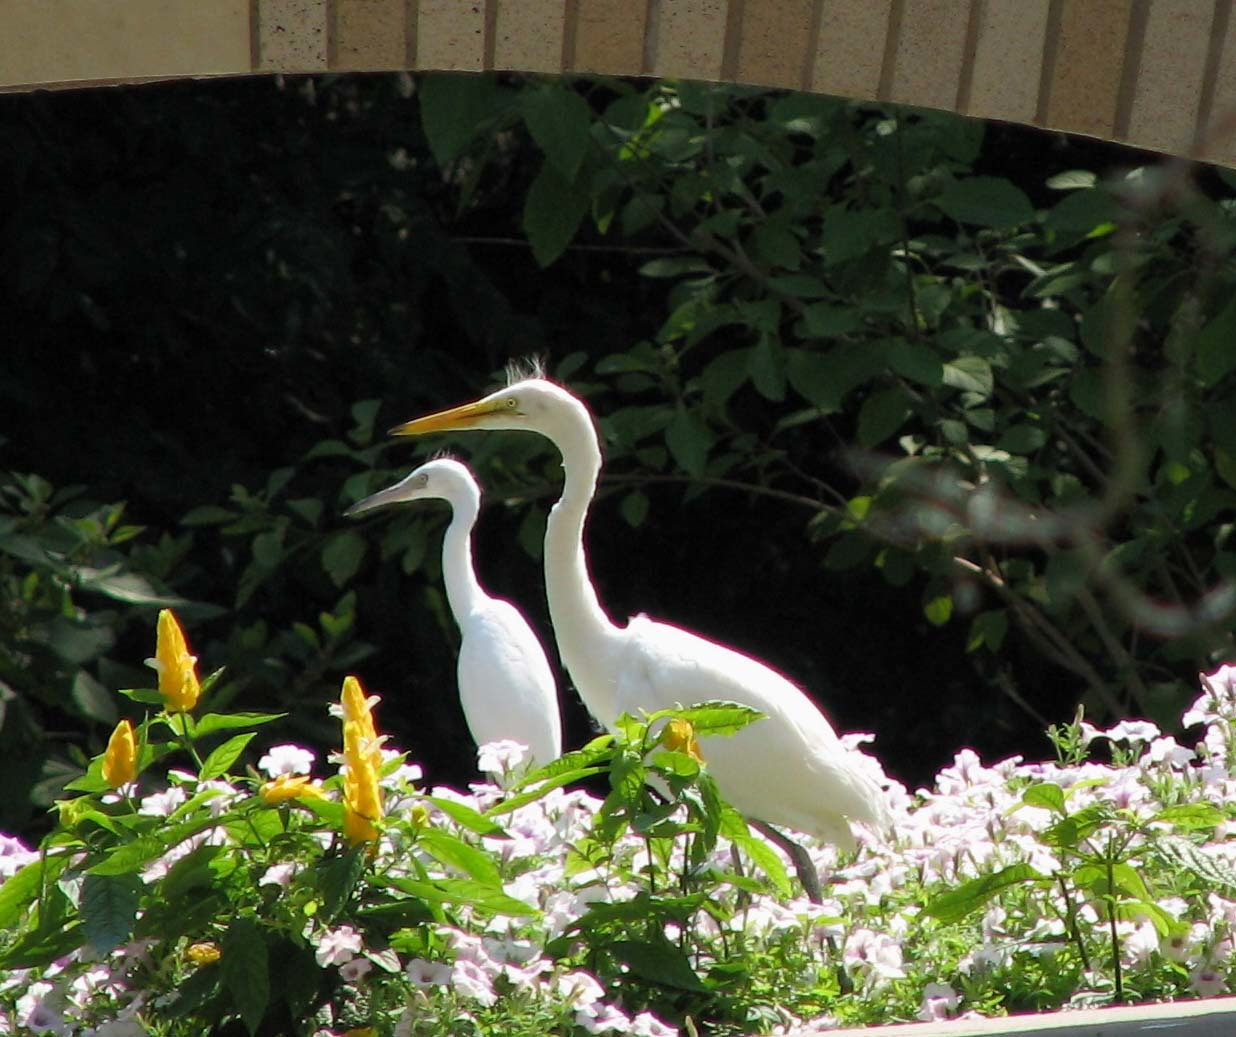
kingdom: Animalia
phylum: Chordata
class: Aves
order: Pelecaniformes
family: Ardeidae
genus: Ardea
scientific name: Ardea alba
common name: Great egret
